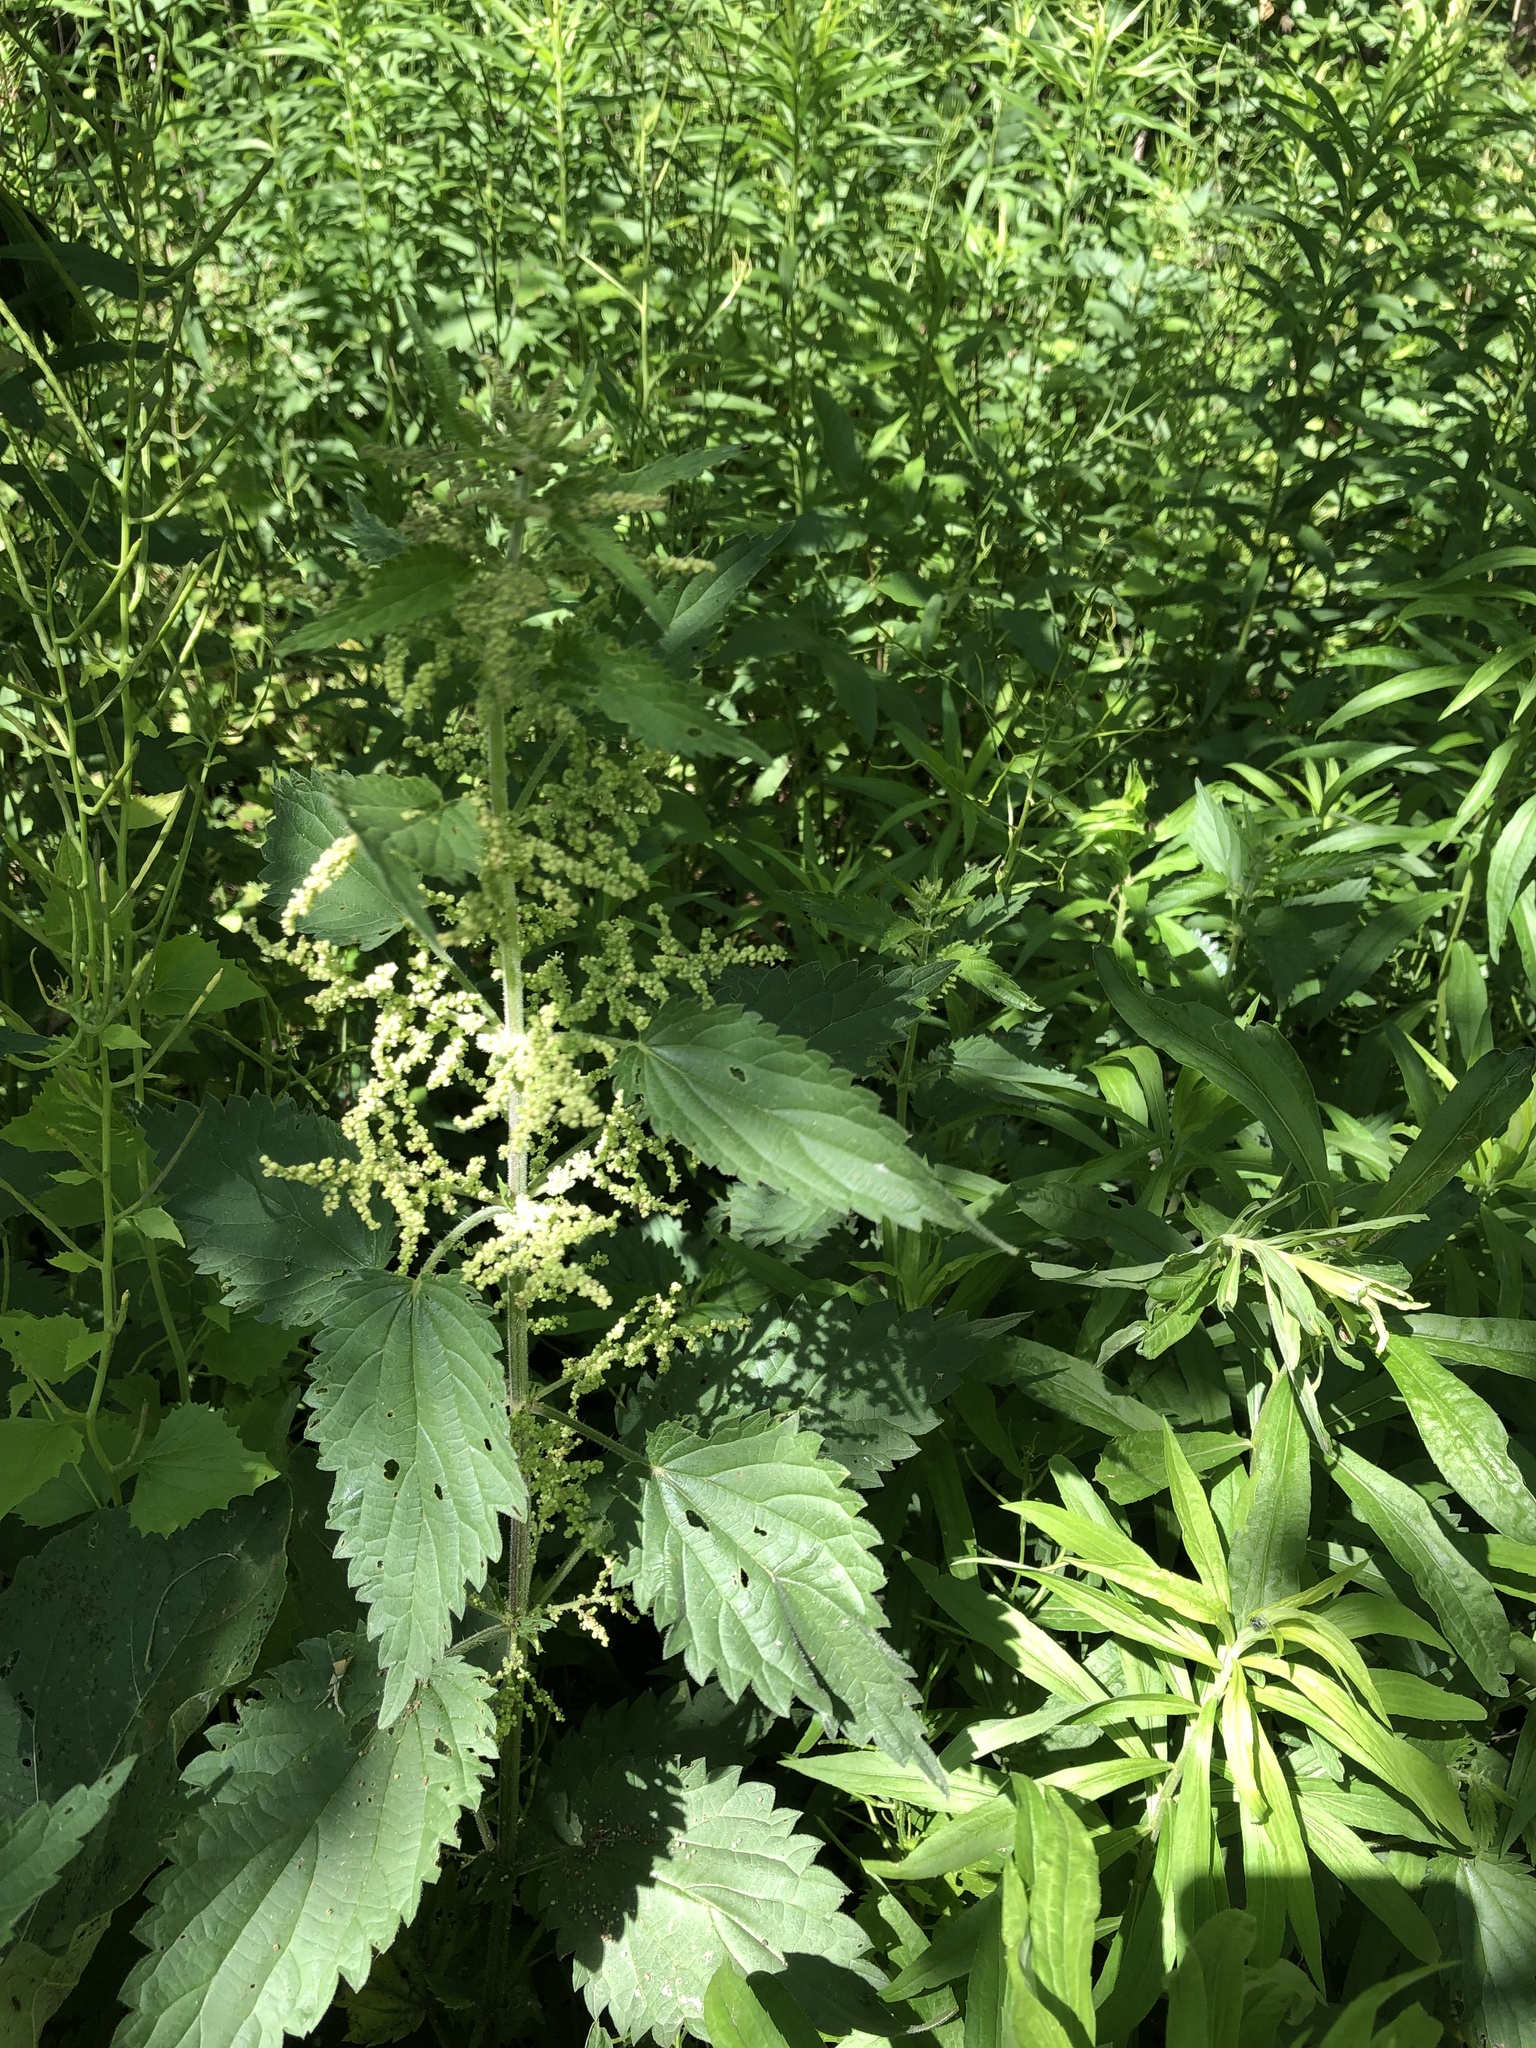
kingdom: Plantae
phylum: Tracheophyta
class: Magnoliopsida
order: Rosales
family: Urticaceae
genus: Laportea
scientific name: Laportea canadensis
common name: Canada nettle
